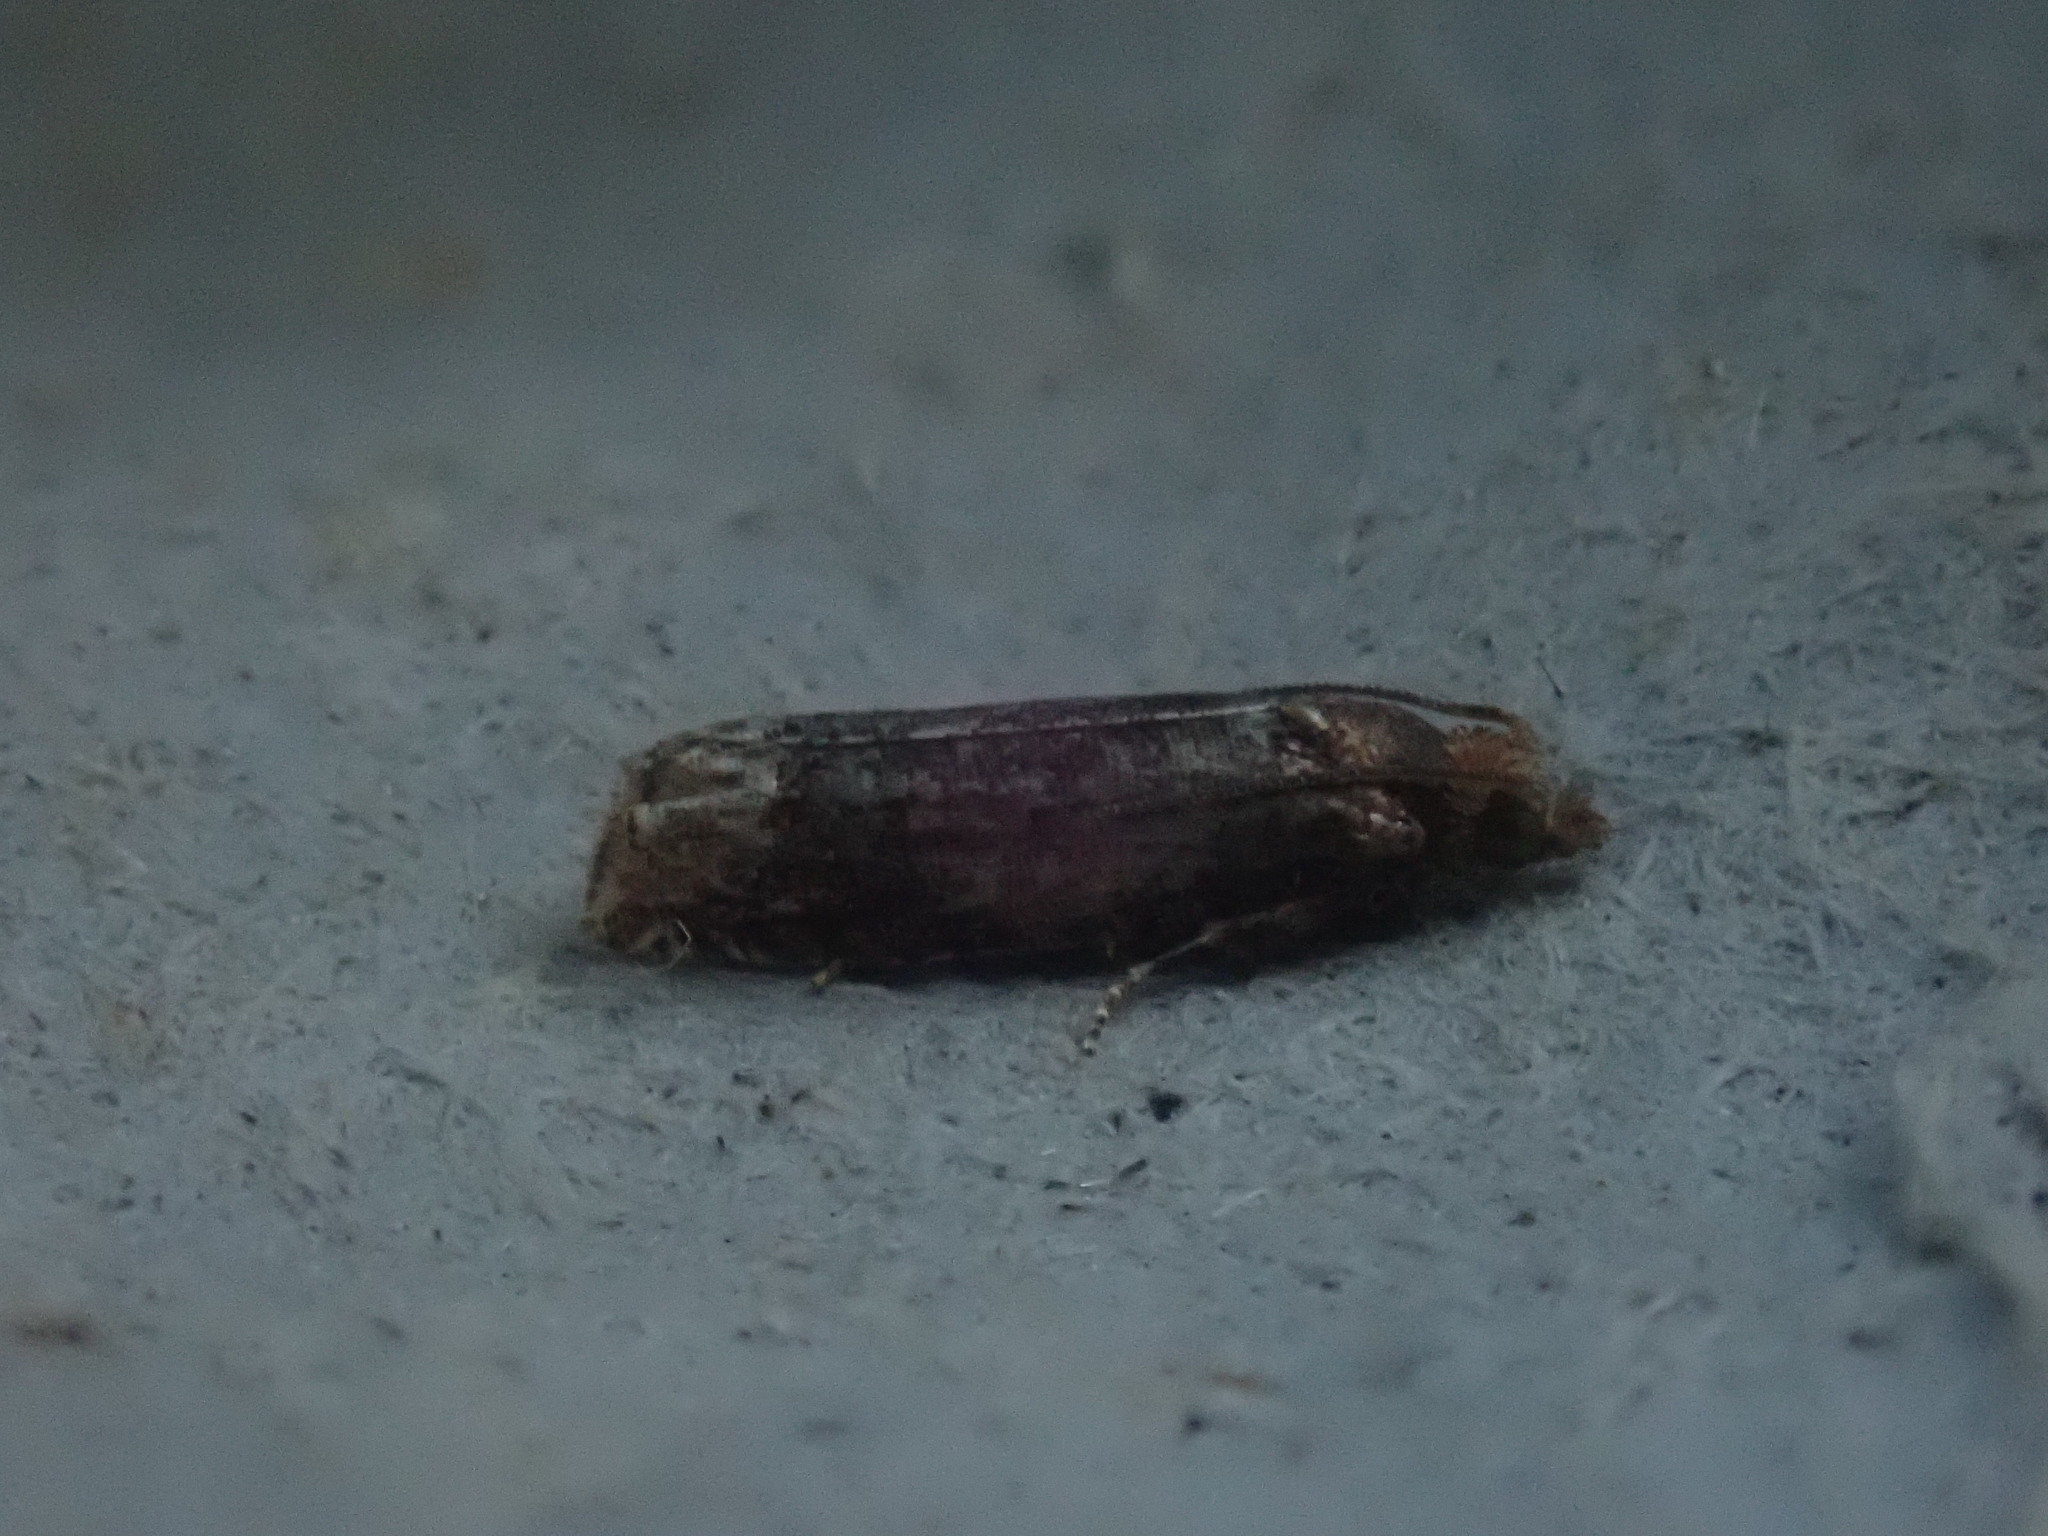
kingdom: Animalia
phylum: Arthropoda
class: Insecta
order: Lepidoptera
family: Tortricidae
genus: Eucosma
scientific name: Eucosma ochroterminana
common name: Buff-tipped eucosma moth
